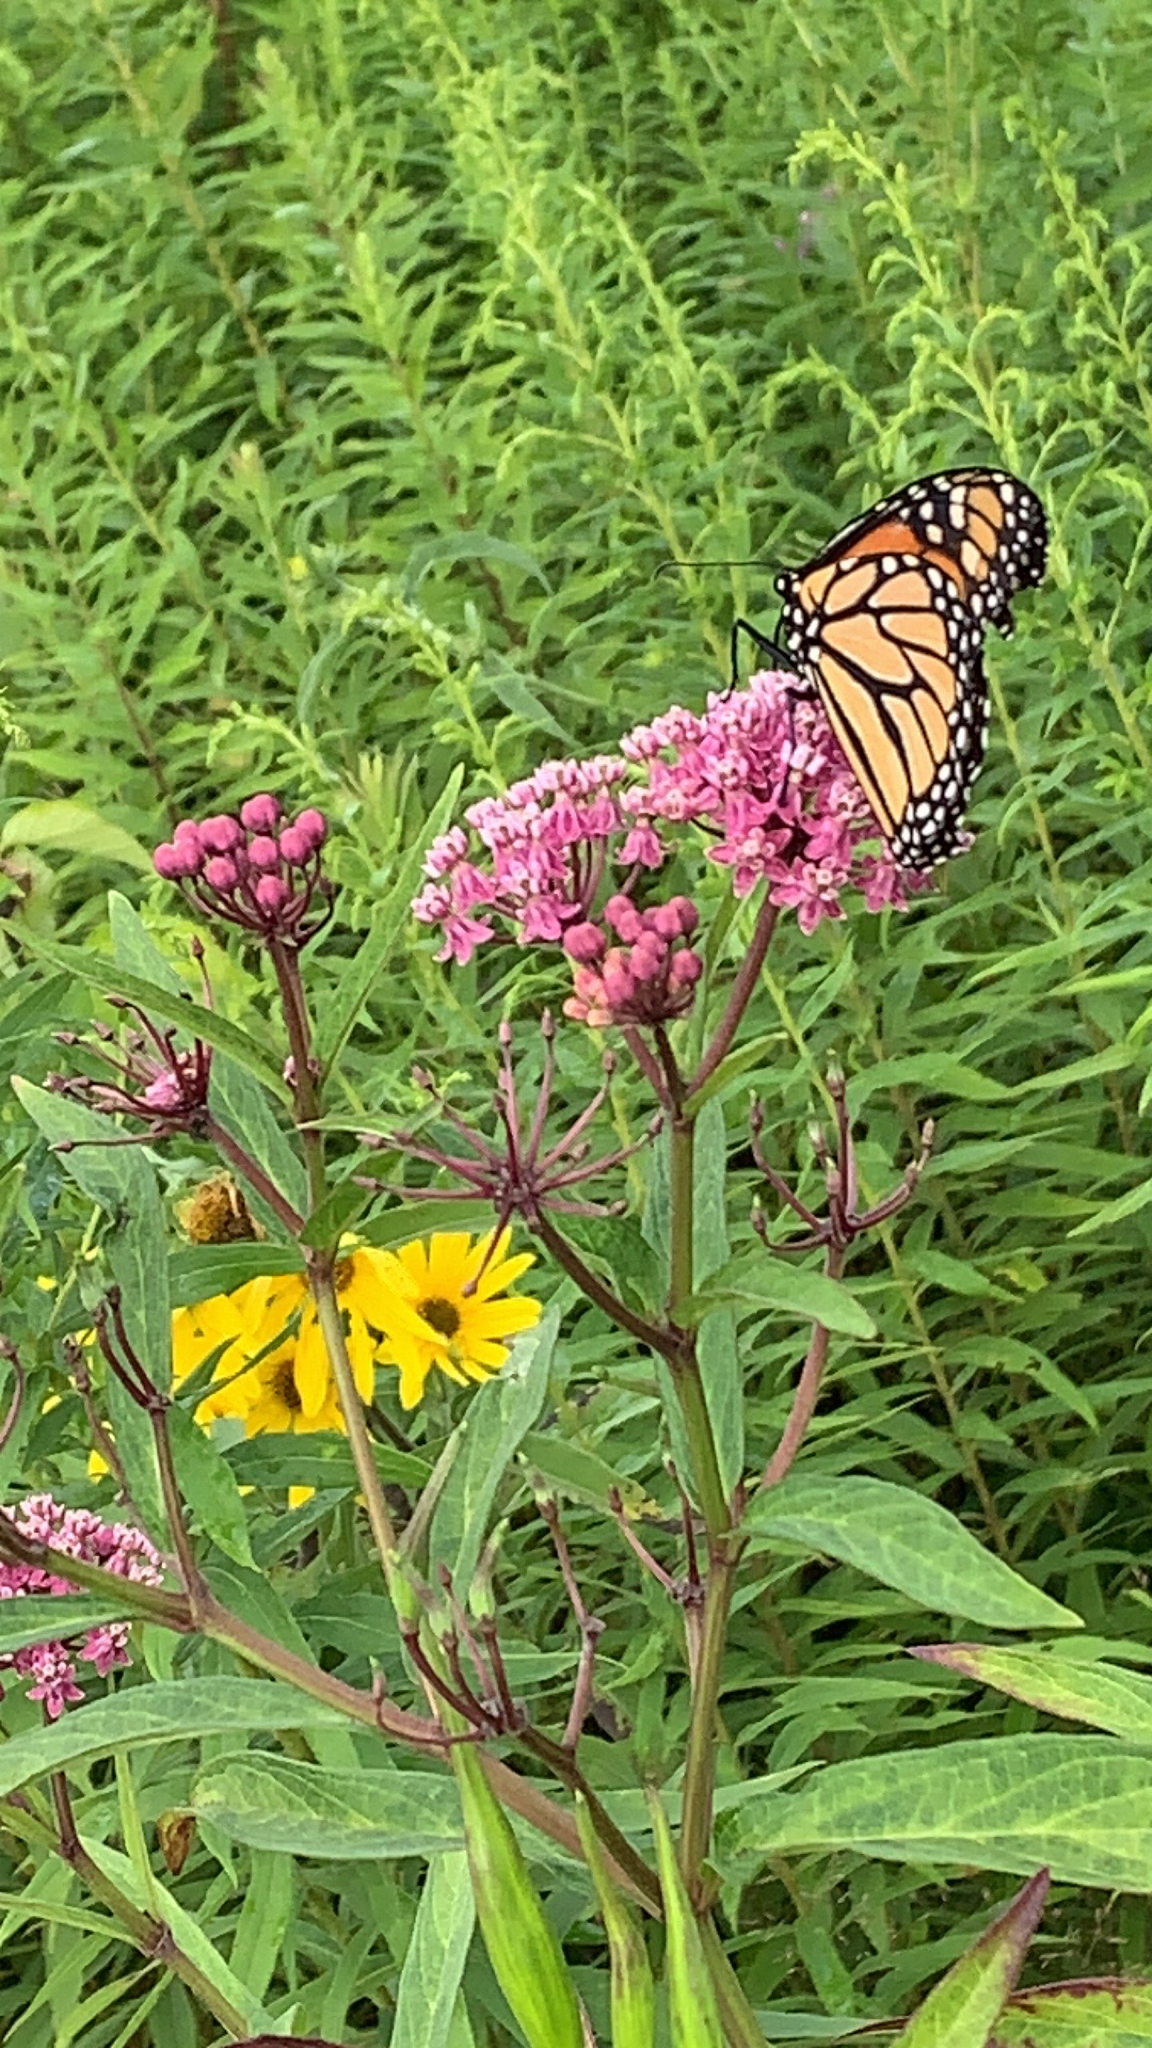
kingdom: Animalia
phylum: Arthropoda
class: Insecta
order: Lepidoptera
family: Nymphalidae
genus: Danaus
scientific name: Danaus plexippus
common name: Monarch
